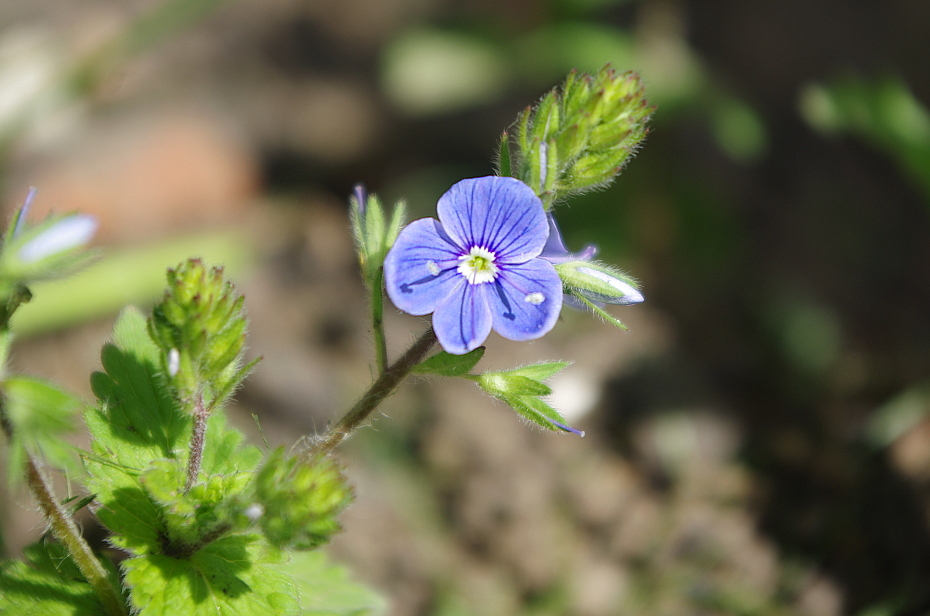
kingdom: Plantae
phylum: Tracheophyta
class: Magnoliopsida
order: Lamiales
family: Plantaginaceae
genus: Veronica
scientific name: Veronica chamaedrys
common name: Germander speedwell
